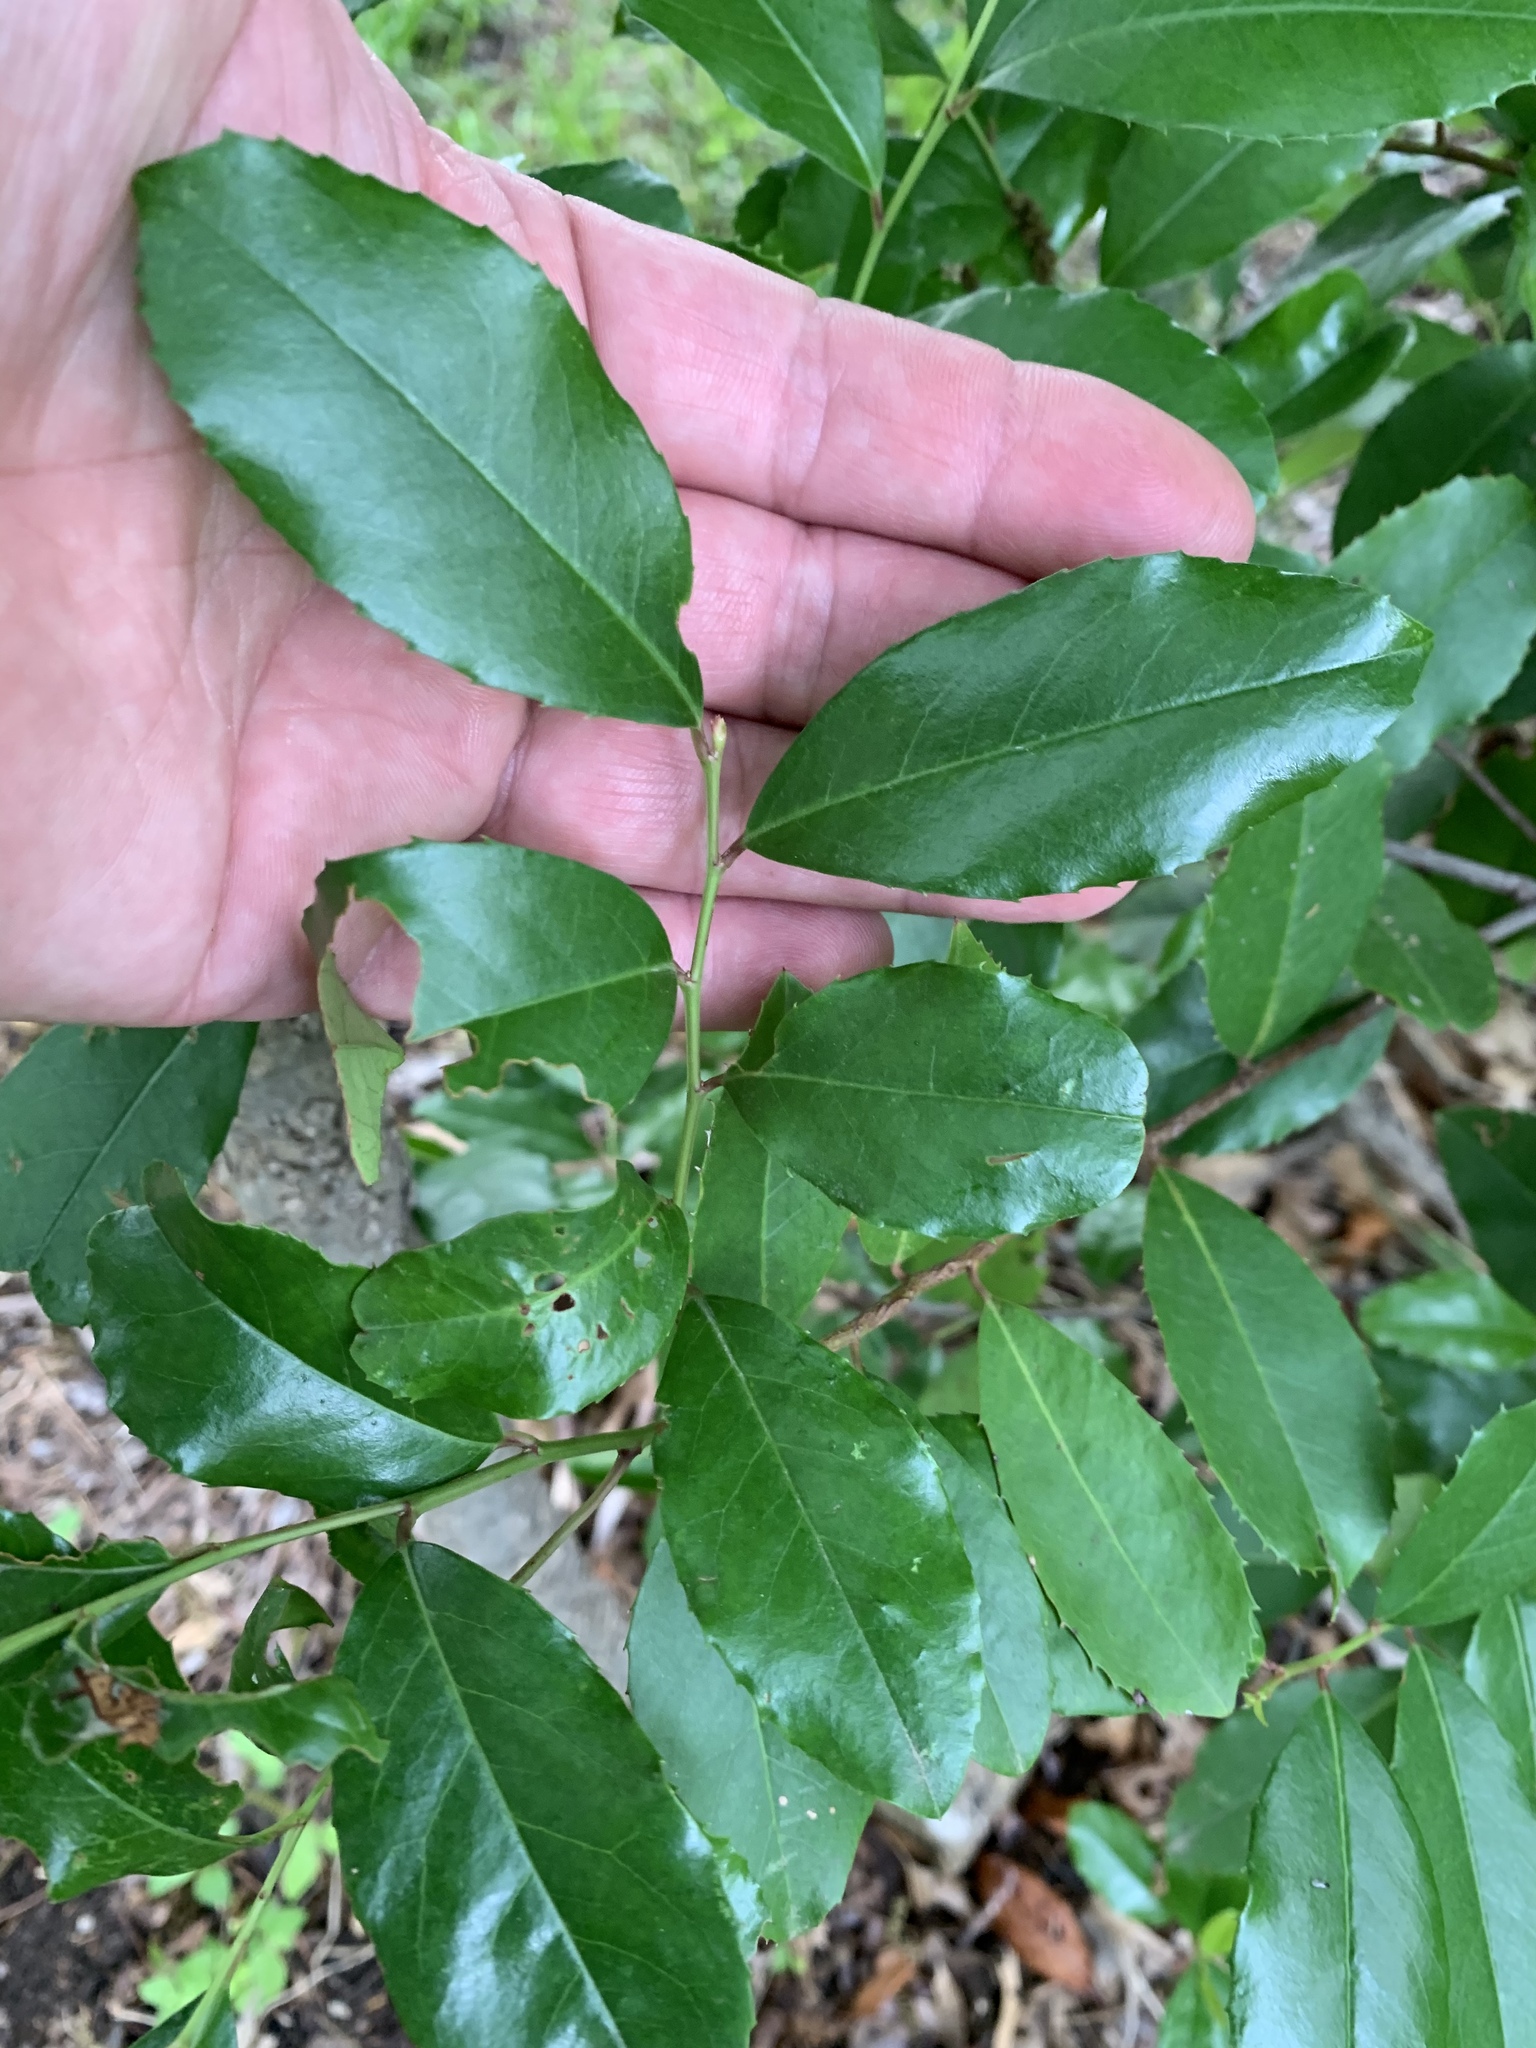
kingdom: Plantae
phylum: Tracheophyta
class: Magnoliopsida
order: Rosales
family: Rosaceae
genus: Prunus
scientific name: Prunus caroliniana
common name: Carolina laurel cherry
